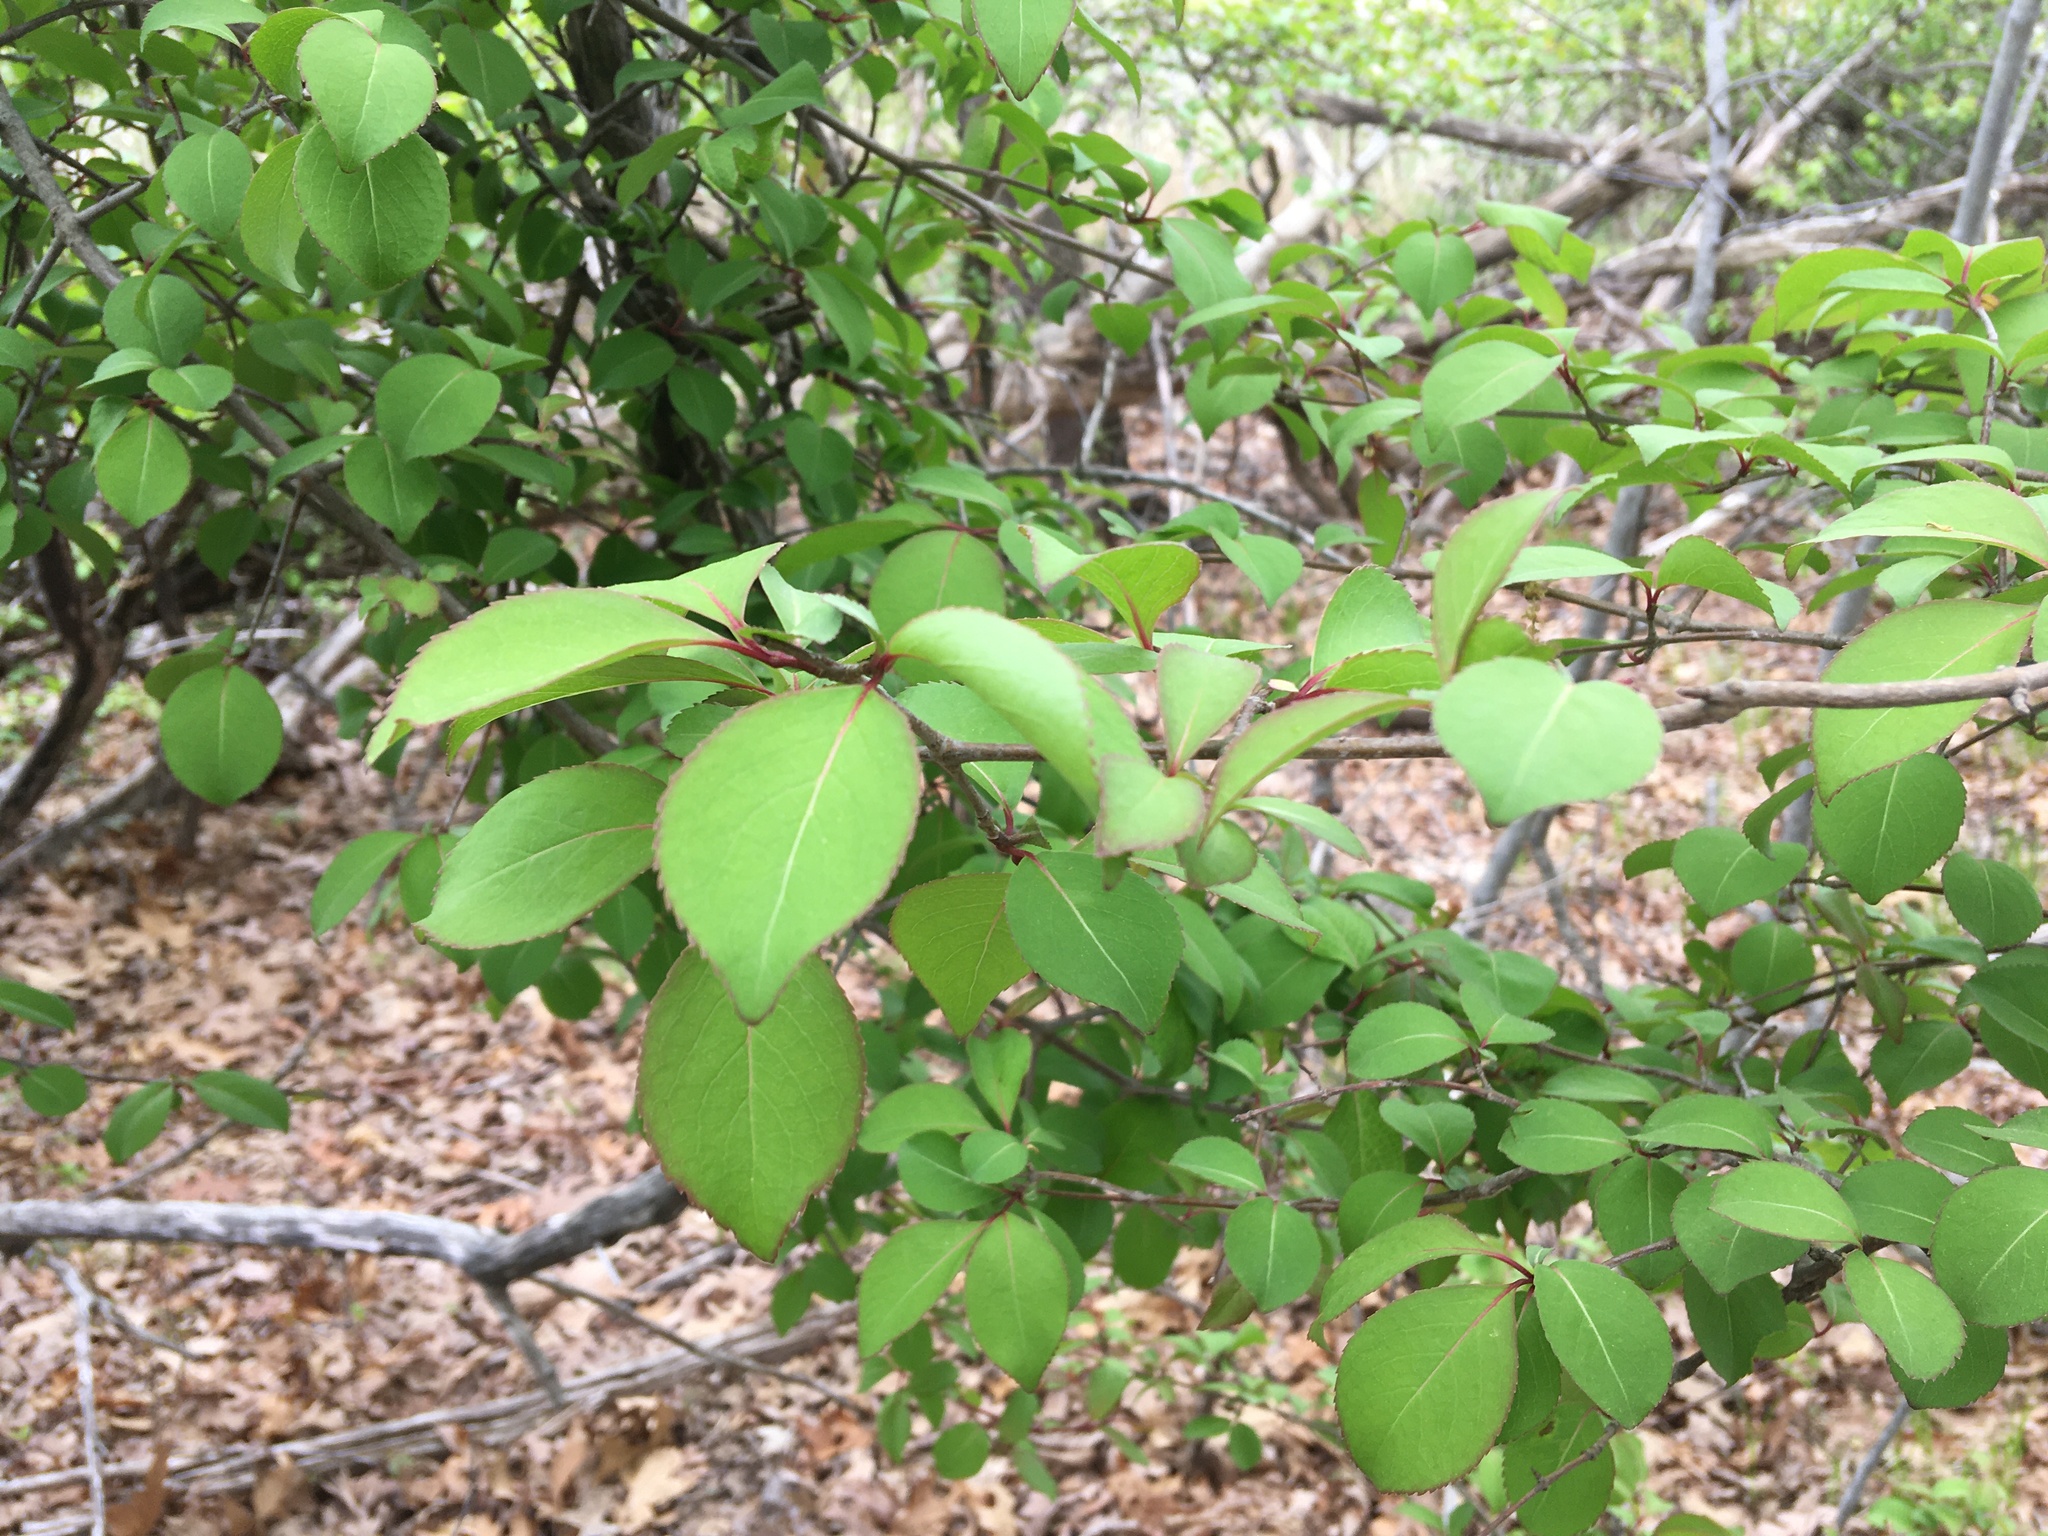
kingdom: Plantae
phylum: Tracheophyta
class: Magnoliopsida
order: Dipsacales
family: Viburnaceae
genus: Viburnum
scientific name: Viburnum prunifolium
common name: Black haw
